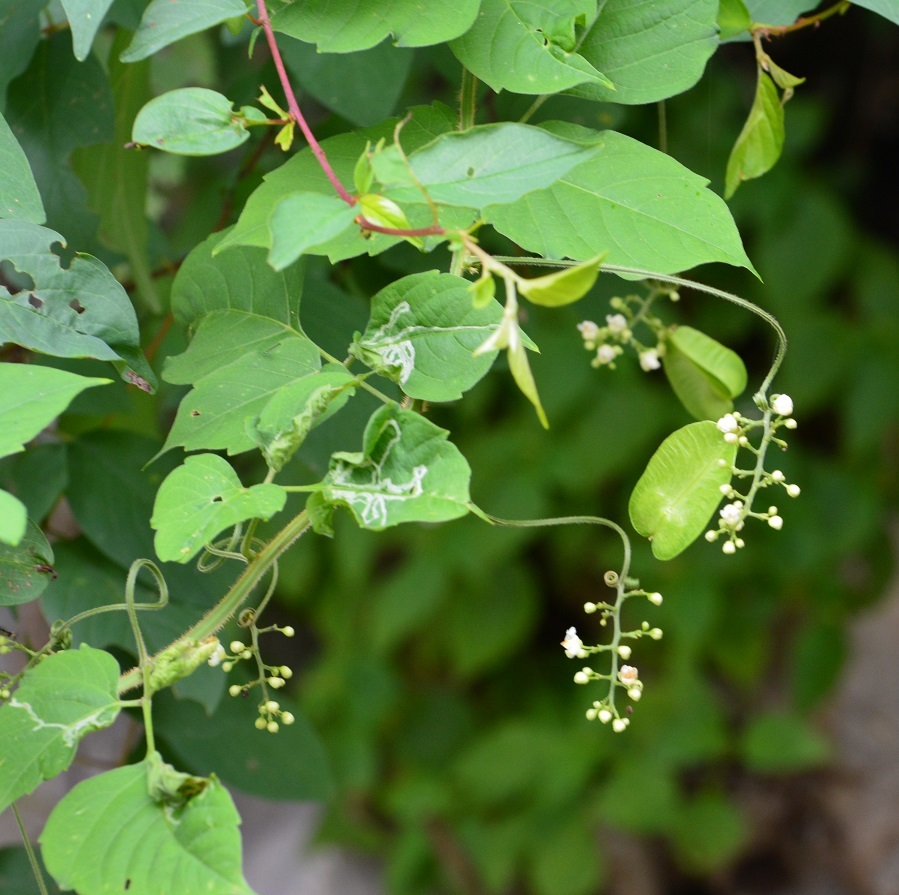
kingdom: Plantae
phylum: Tracheophyta
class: Magnoliopsida
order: Sapindales
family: Sapindaceae
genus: Serjania
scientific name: Serjania cardiospermoides
